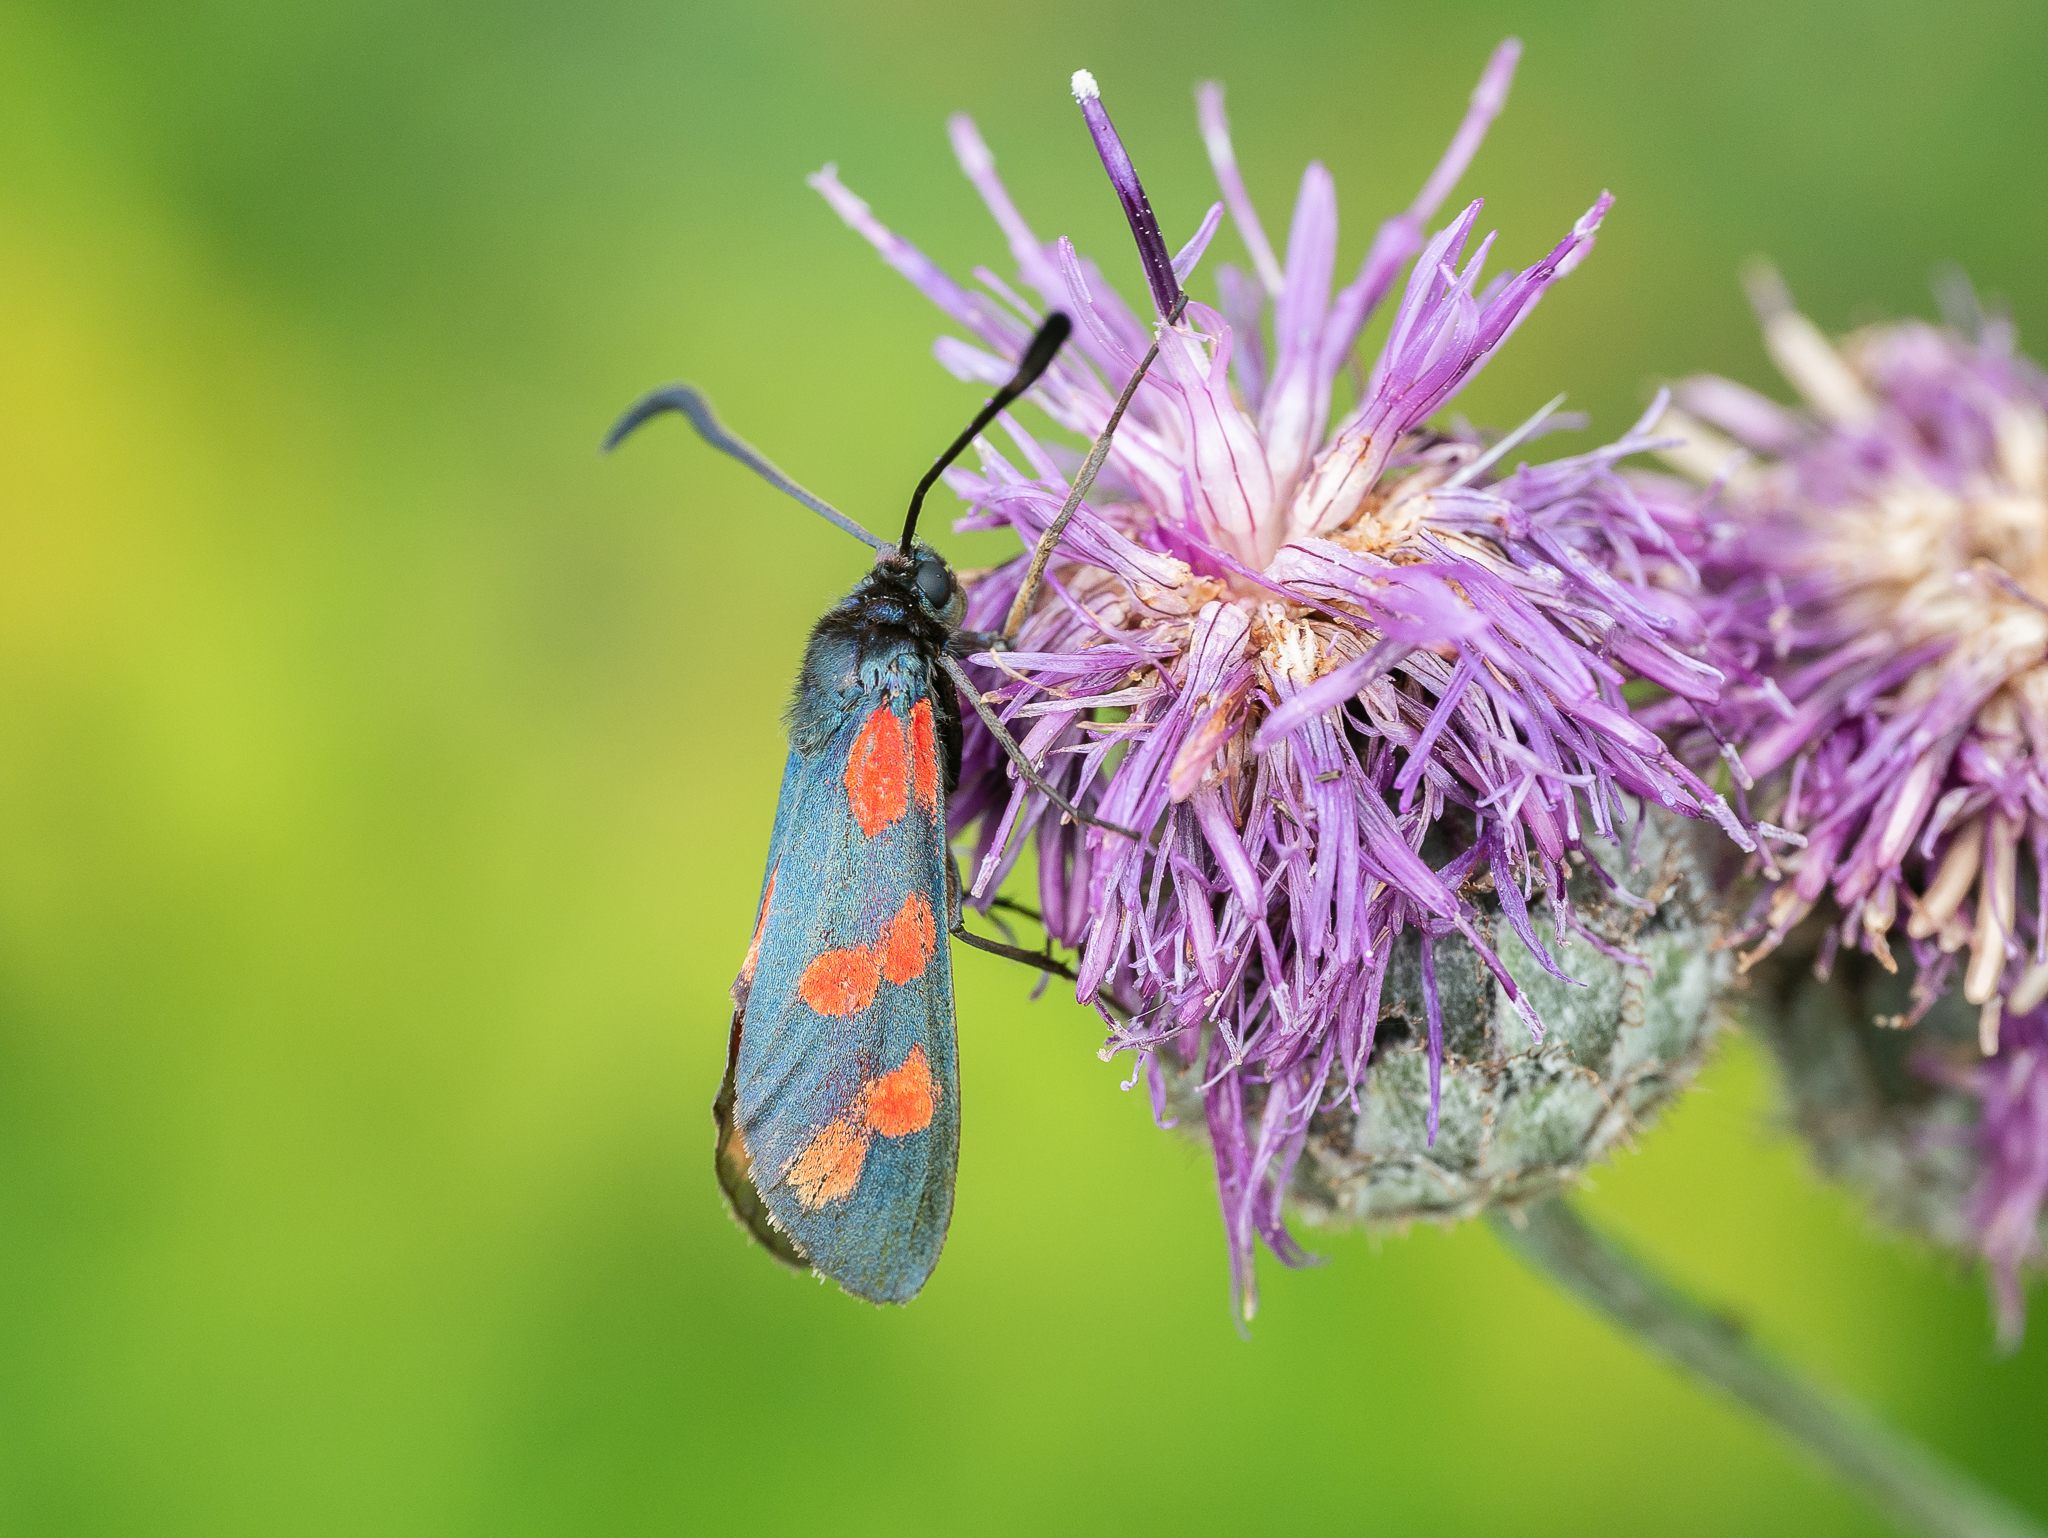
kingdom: Animalia
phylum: Arthropoda
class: Insecta
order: Lepidoptera
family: Zygaenidae
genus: Zygaena
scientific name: Zygaena filipendulae
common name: Six-spot burnet
